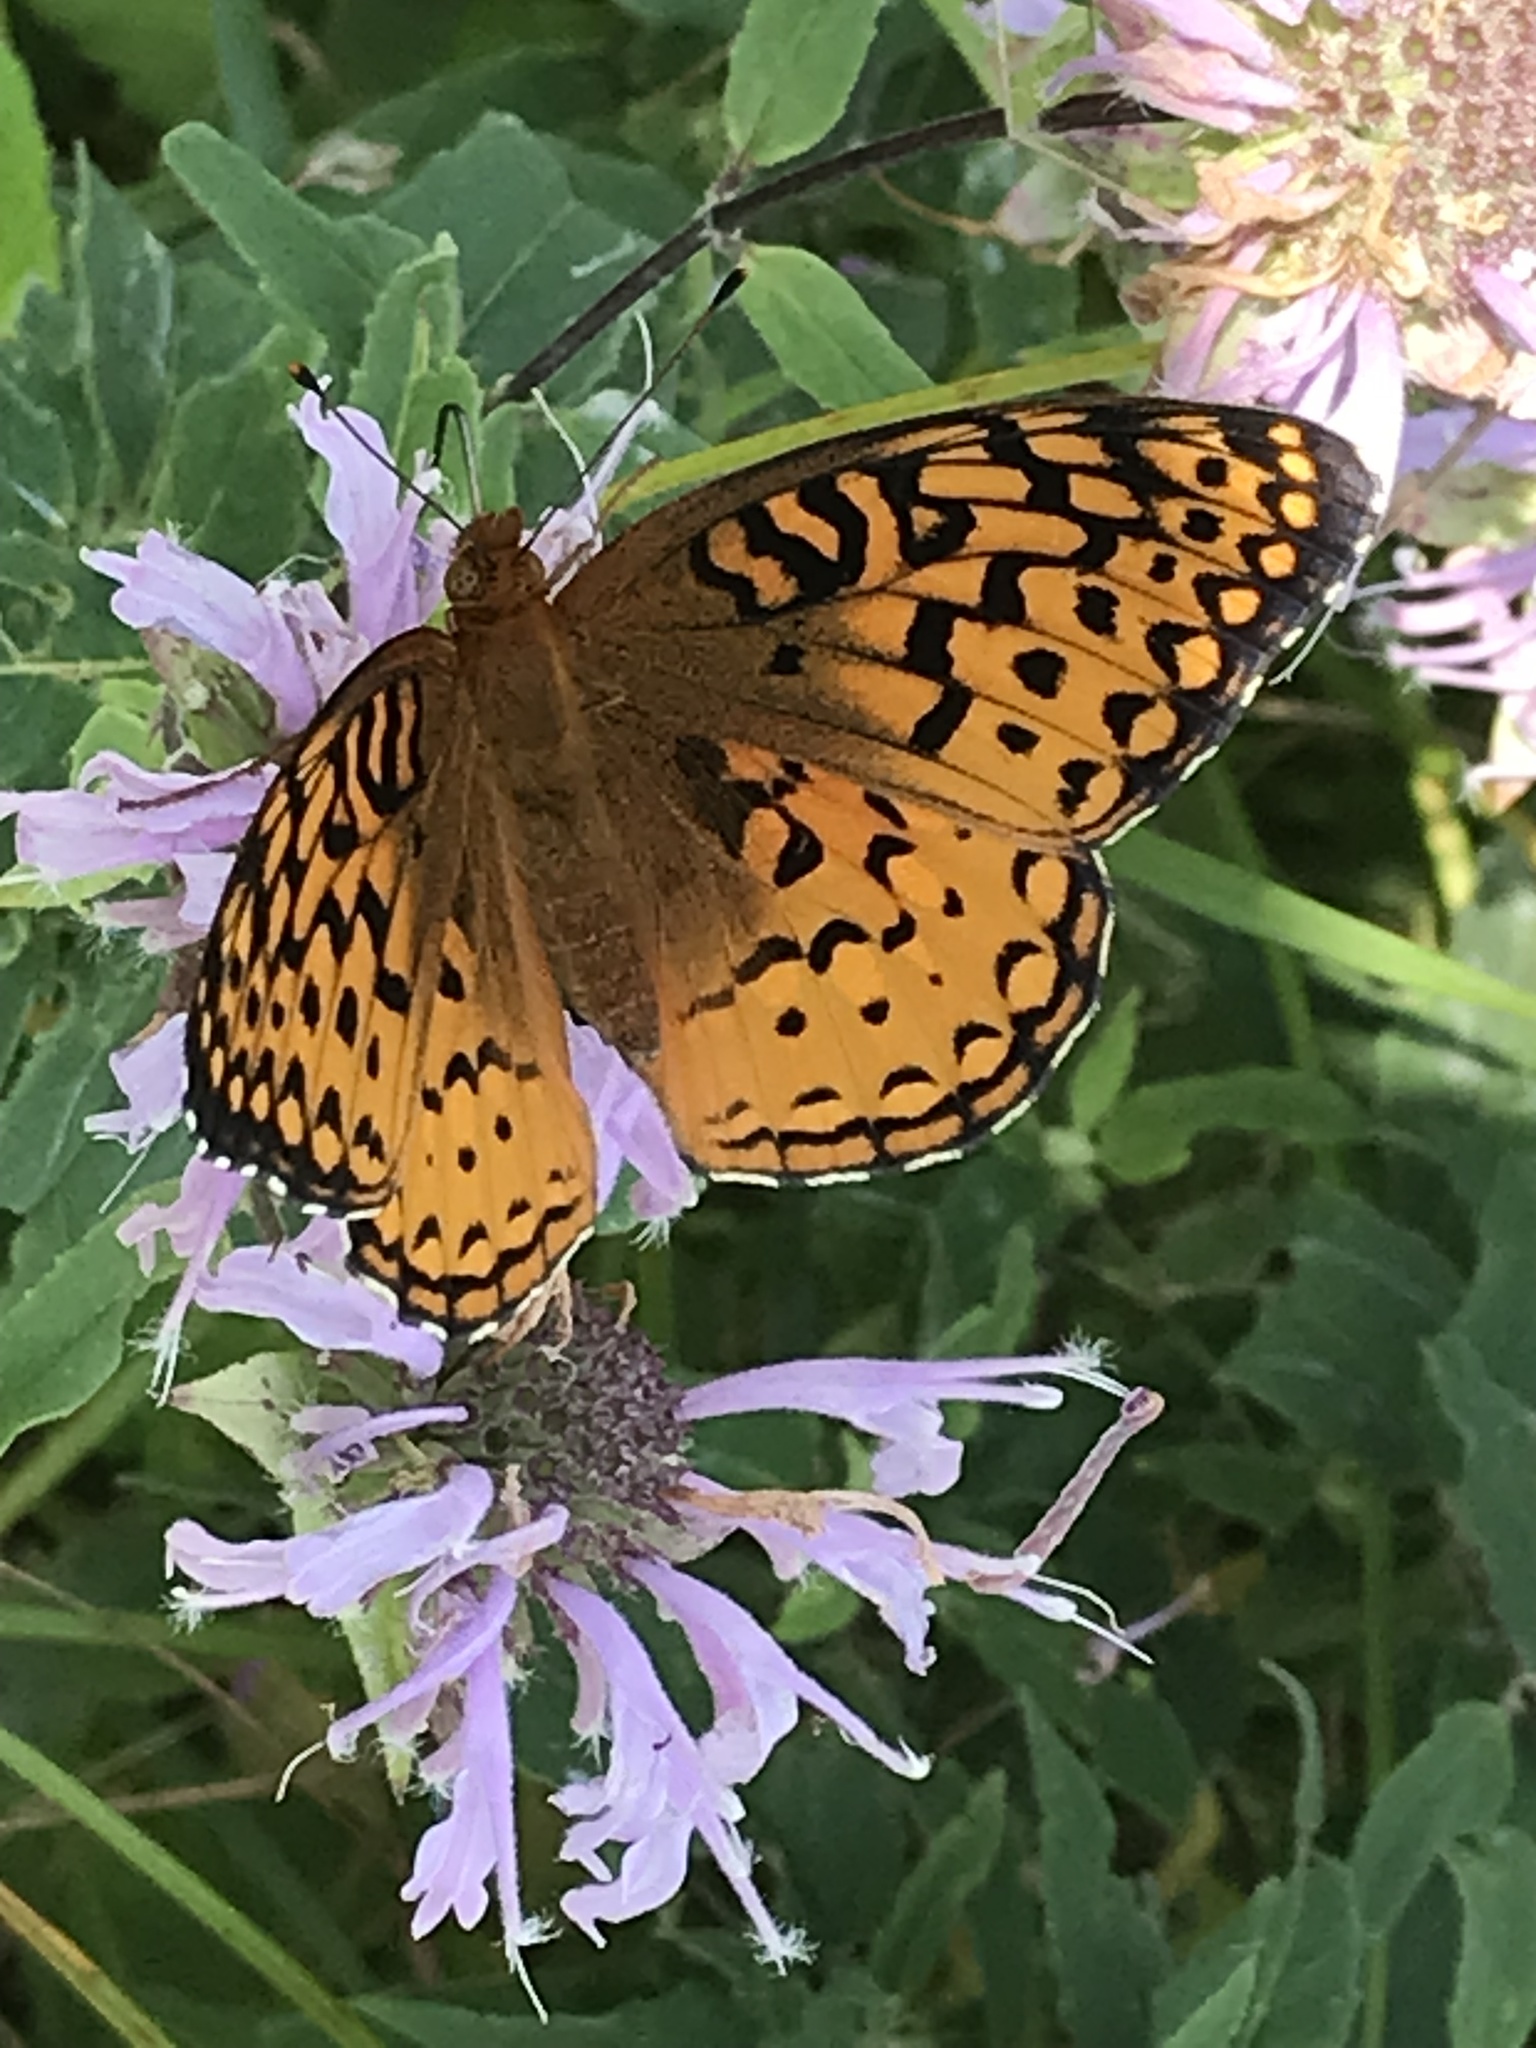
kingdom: Animalia
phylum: Arthropoda
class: Insecta
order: Lepidoptera
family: Nymphalidae
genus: Speyeria
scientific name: Speyeria aphrodite
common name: Aphrodite friitllary
